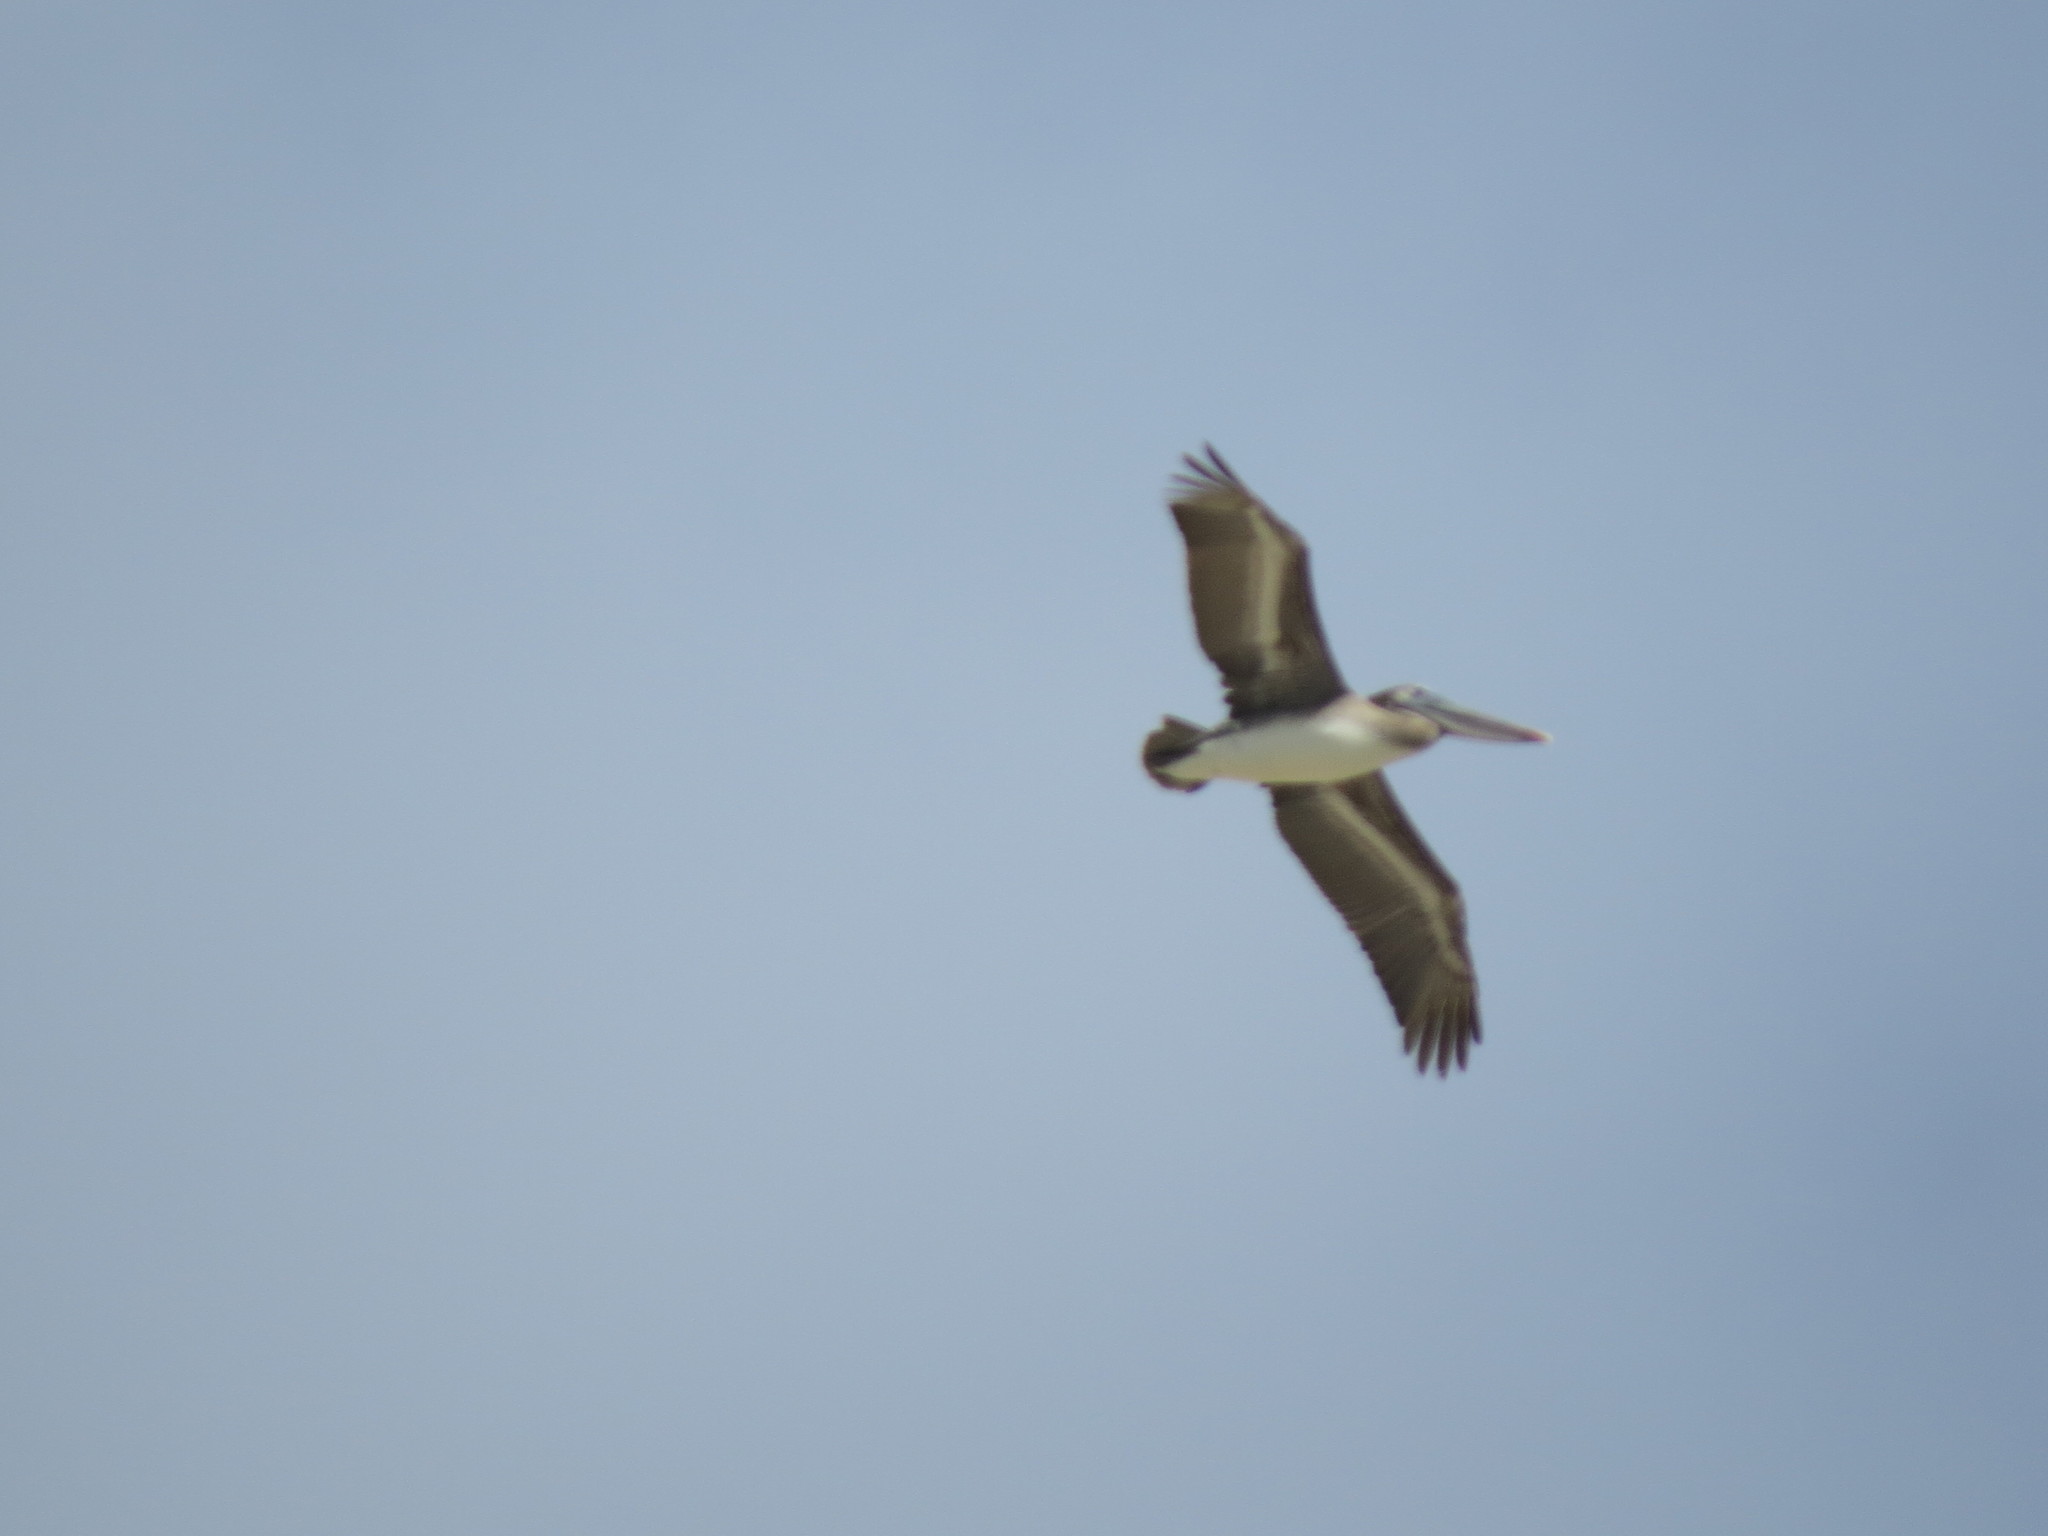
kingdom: Animalia
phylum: Chordata
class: Aves
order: Pelecaniformes
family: Pelecanidae
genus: Pelecanus
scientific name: Pelecanus occidentalis
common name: Brown pelican
